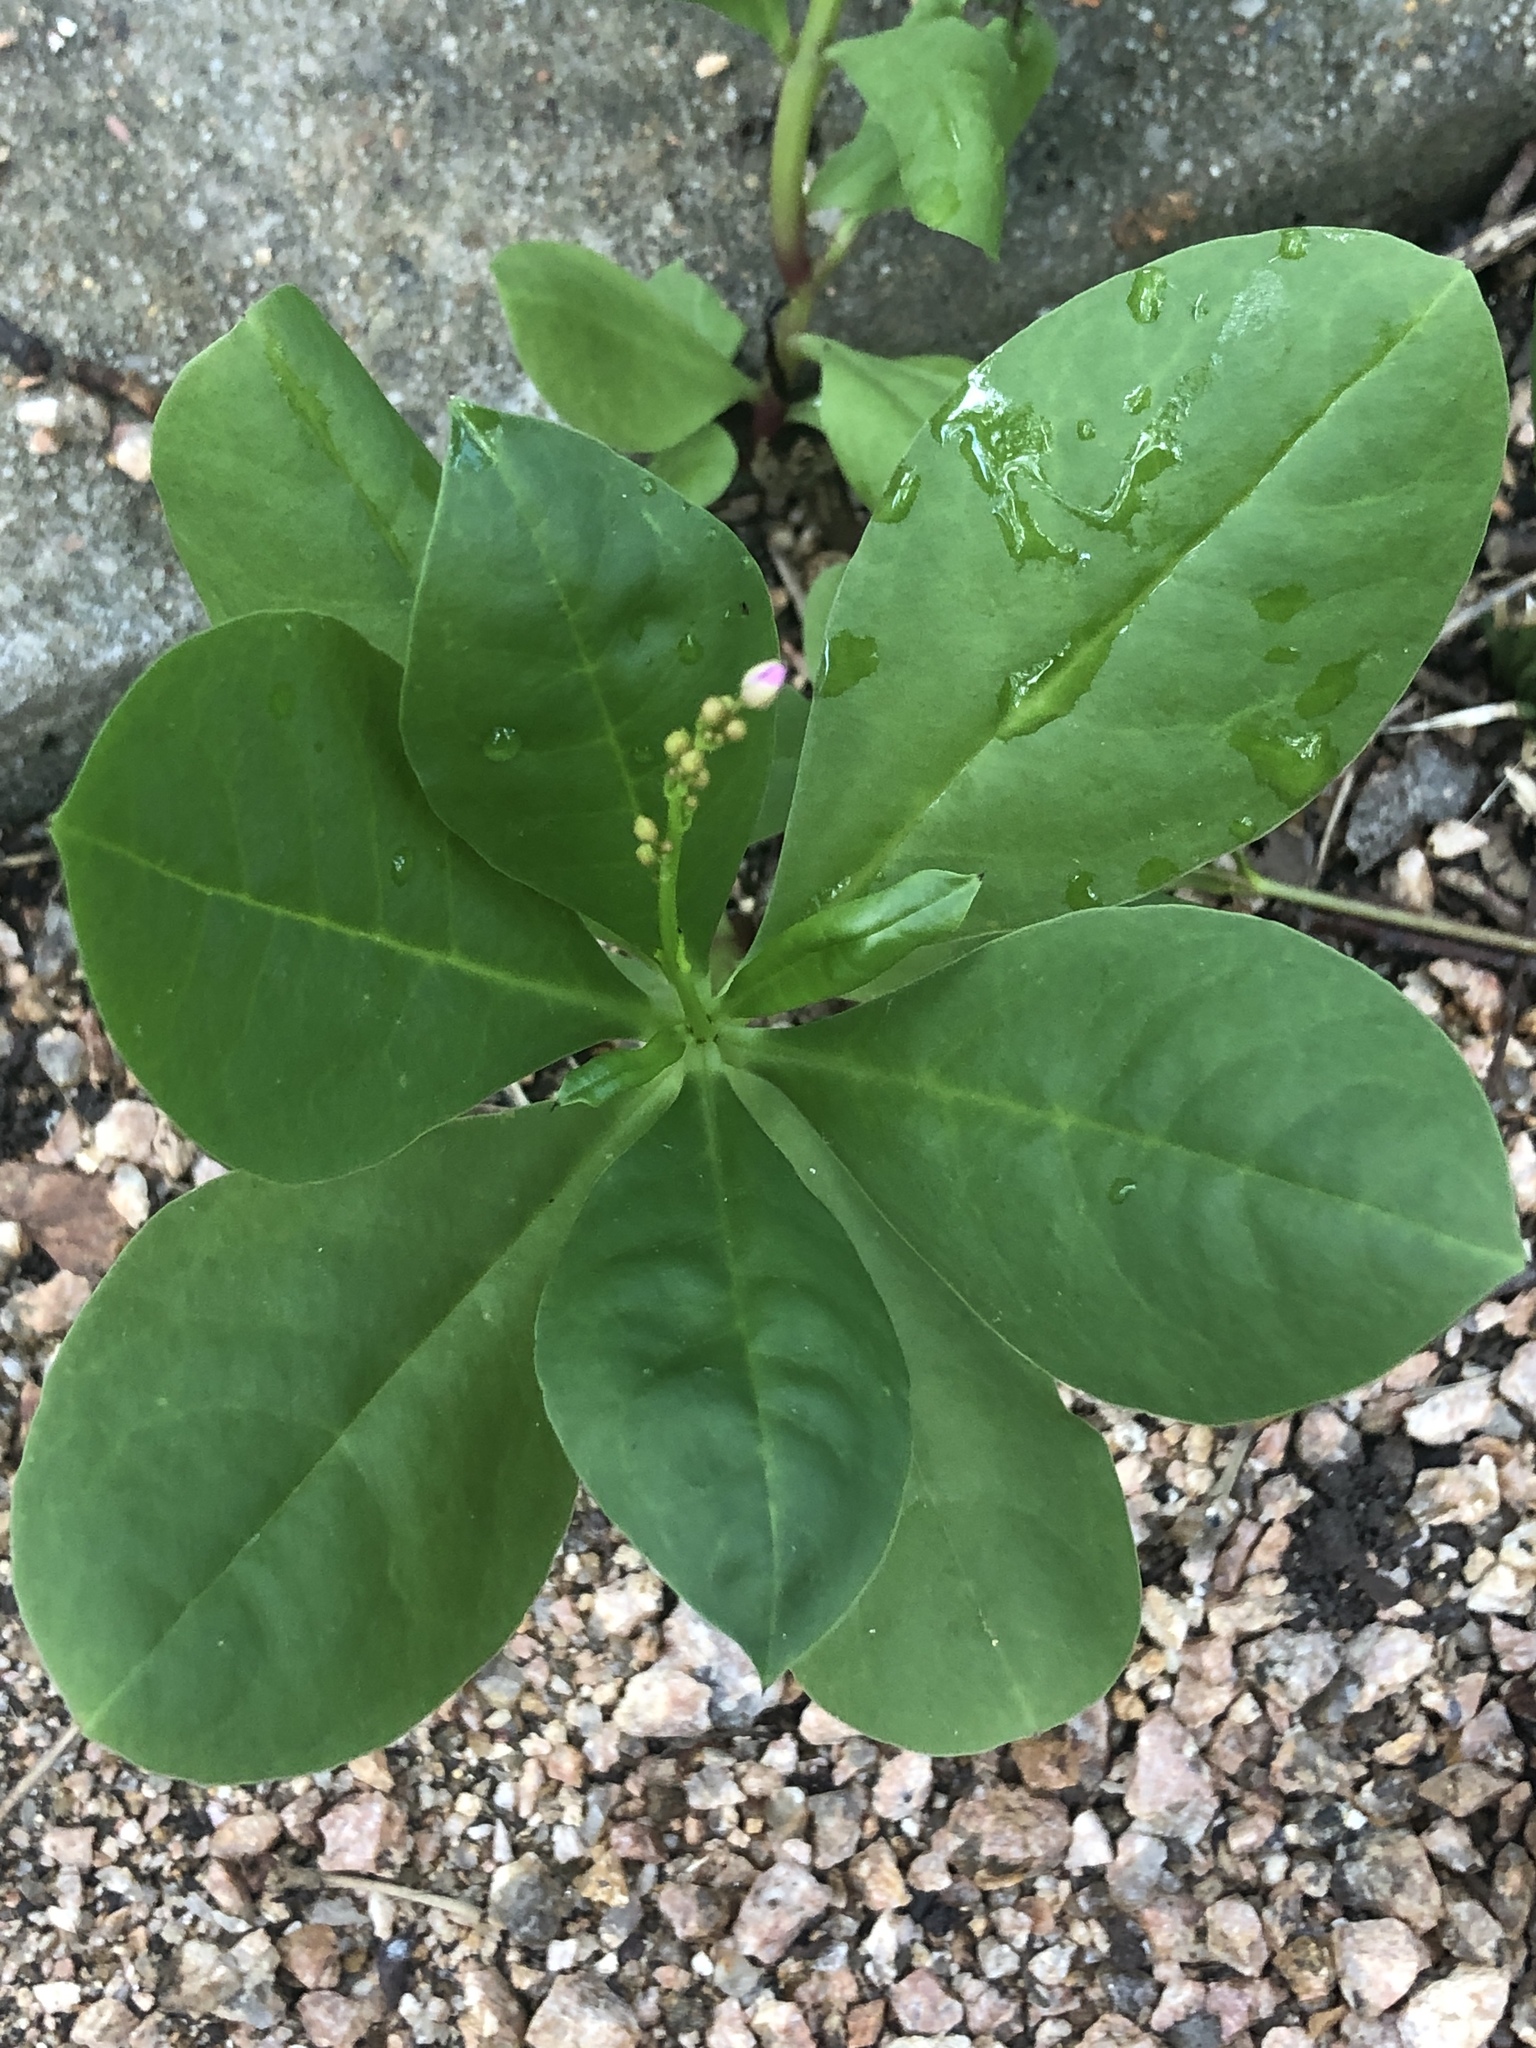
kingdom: Plantae
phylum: Tracheophyta
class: Magnoliopsida
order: Caryophyllales
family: Talinaceae
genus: Talinum
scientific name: Talinum paniculatum
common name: Jewels of opar
